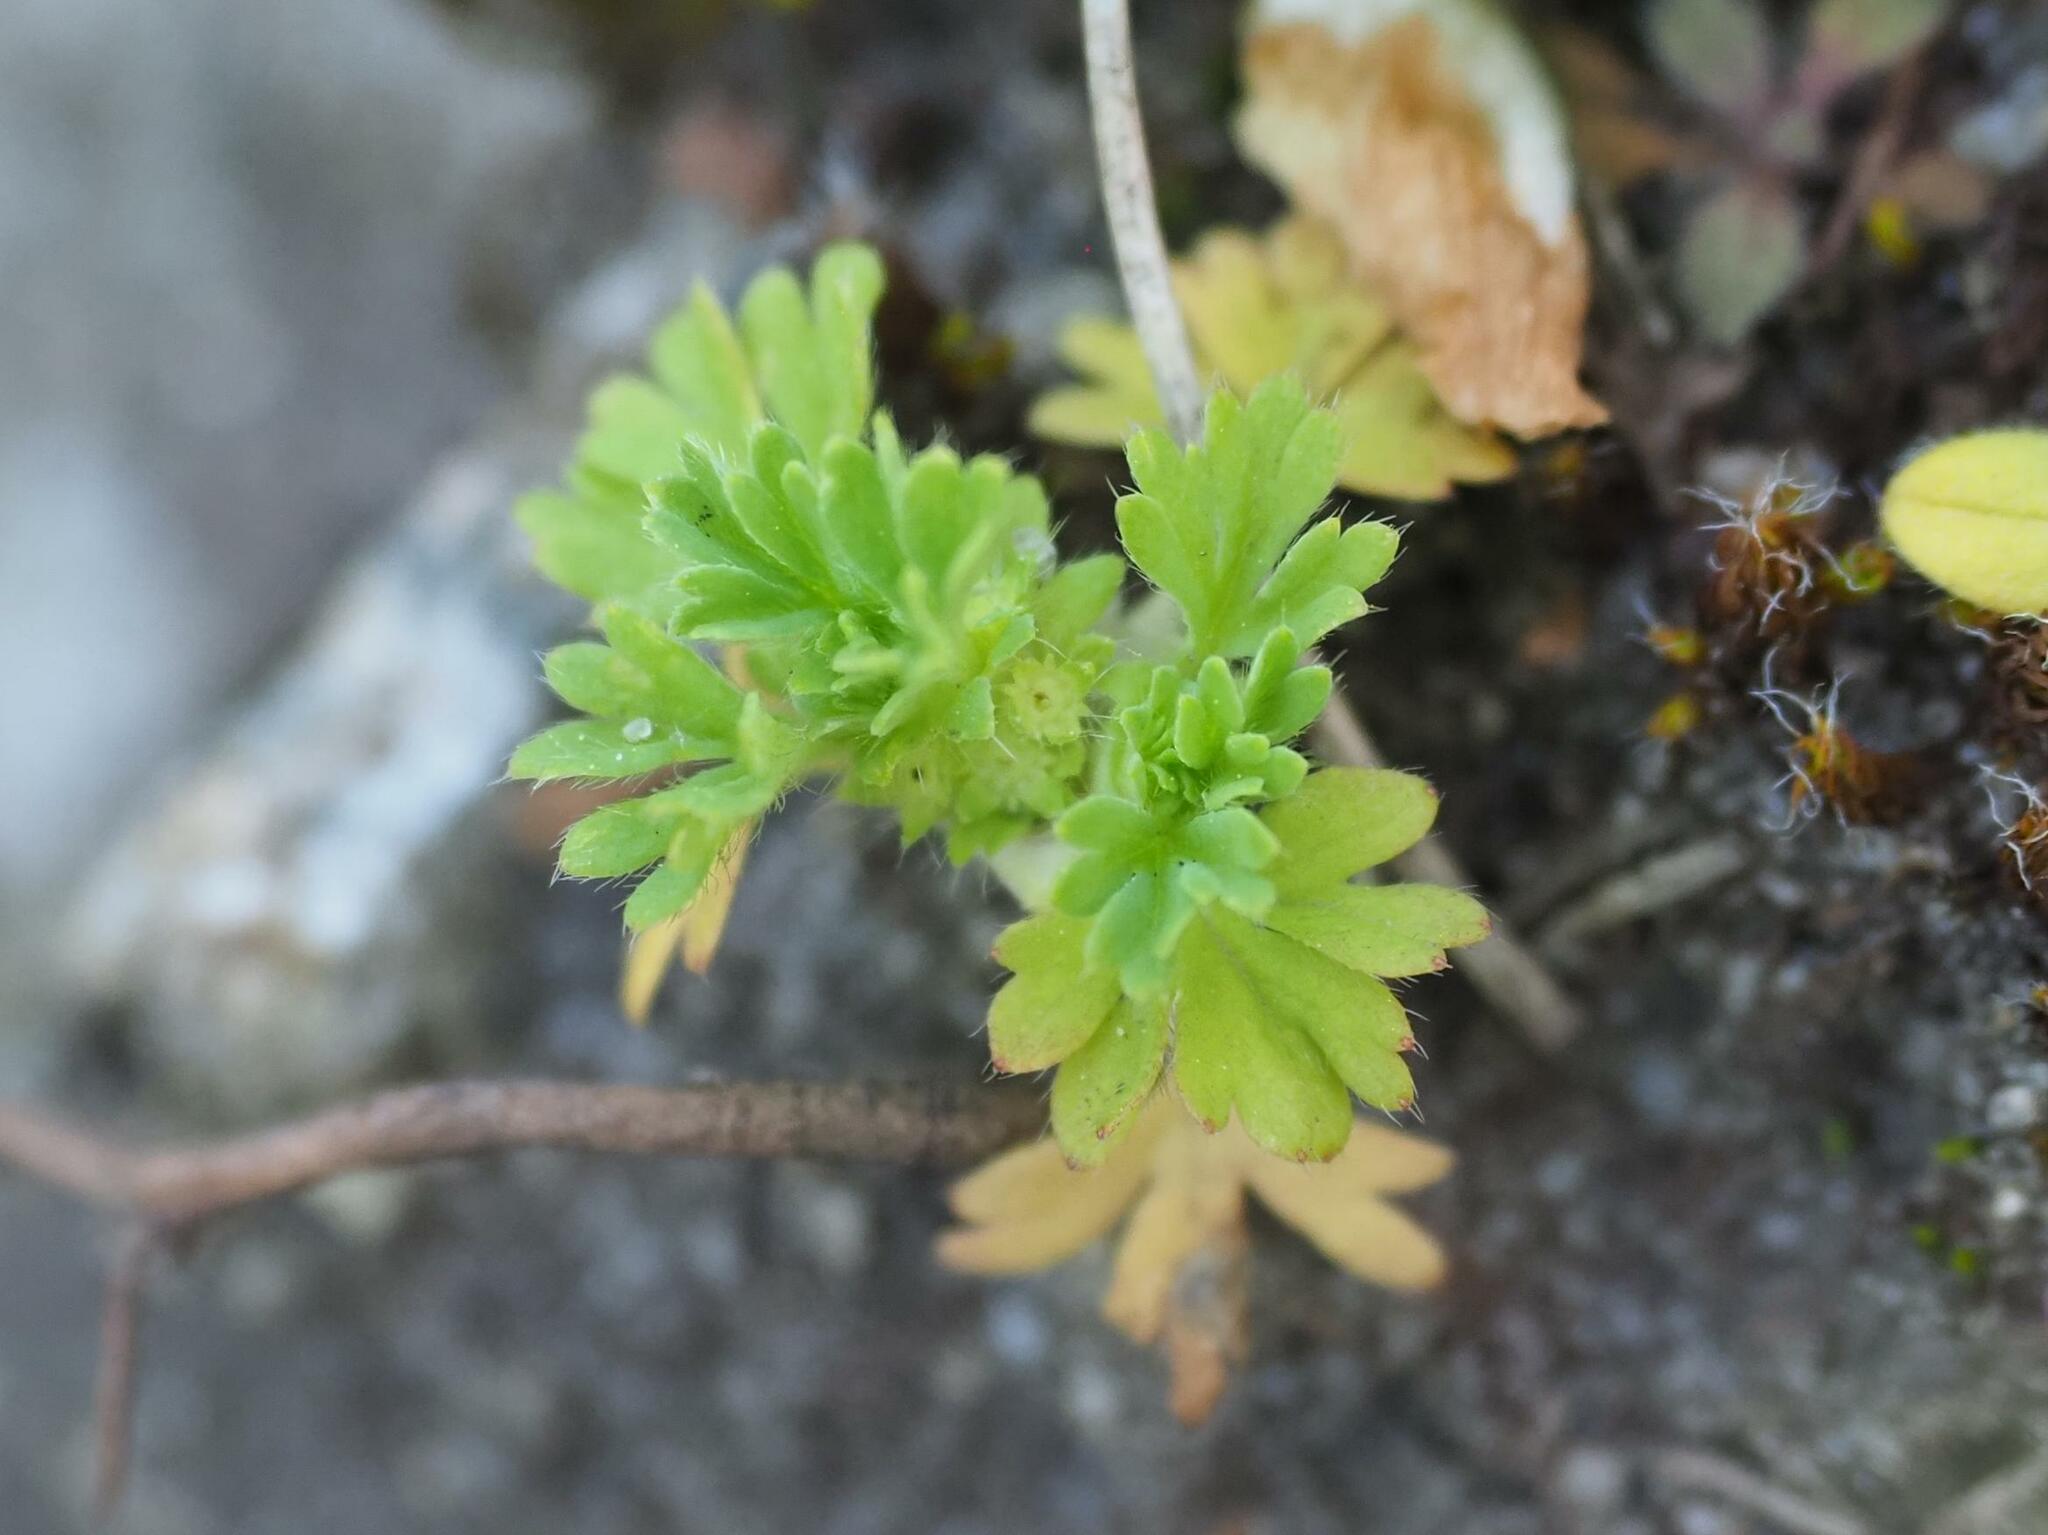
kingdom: Plantae
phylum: Tracheophyta
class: Magnoliopsida
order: Rosales
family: Rosaceae
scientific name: Rosaceae
